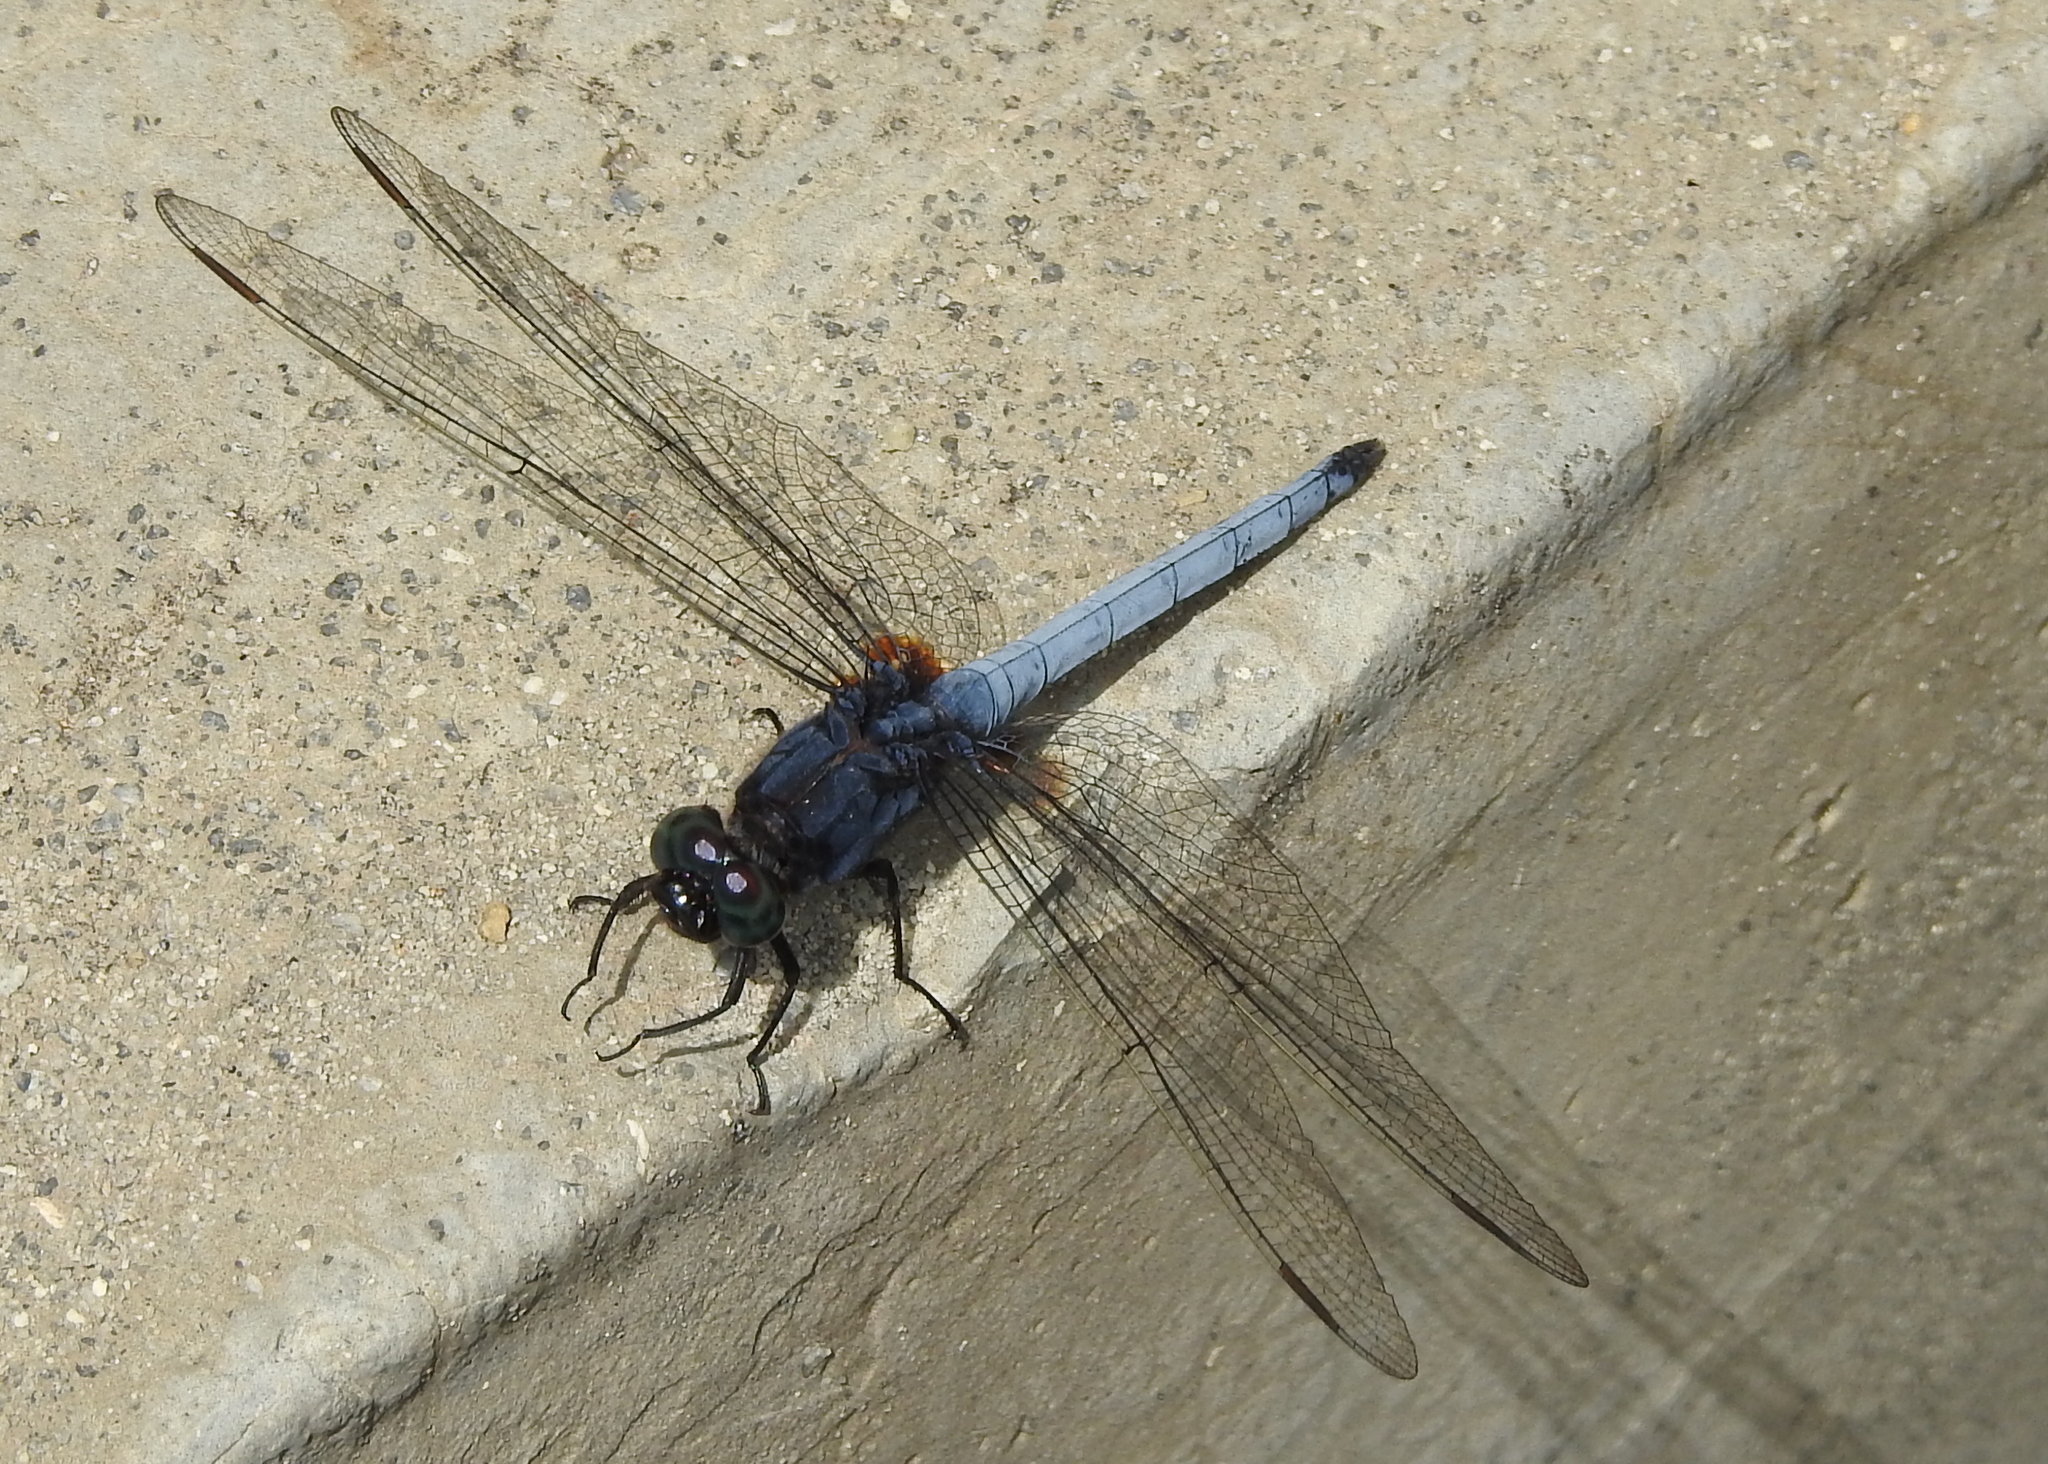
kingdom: Animalia
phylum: Arthropoda
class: Insecta
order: Odonata
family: Libellulidae
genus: Orthetrum
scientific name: Orthetrum glaucum
